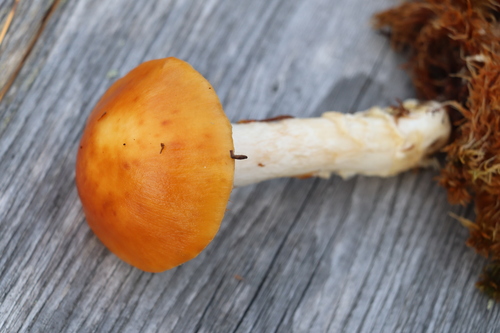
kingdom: Fungi
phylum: Basidiomycota
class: Agaricomycetes
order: Agaricales
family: Cortinariaceae
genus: Cortinarius
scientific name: Cortinarius stillatitius
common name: Purple stocking webcap
